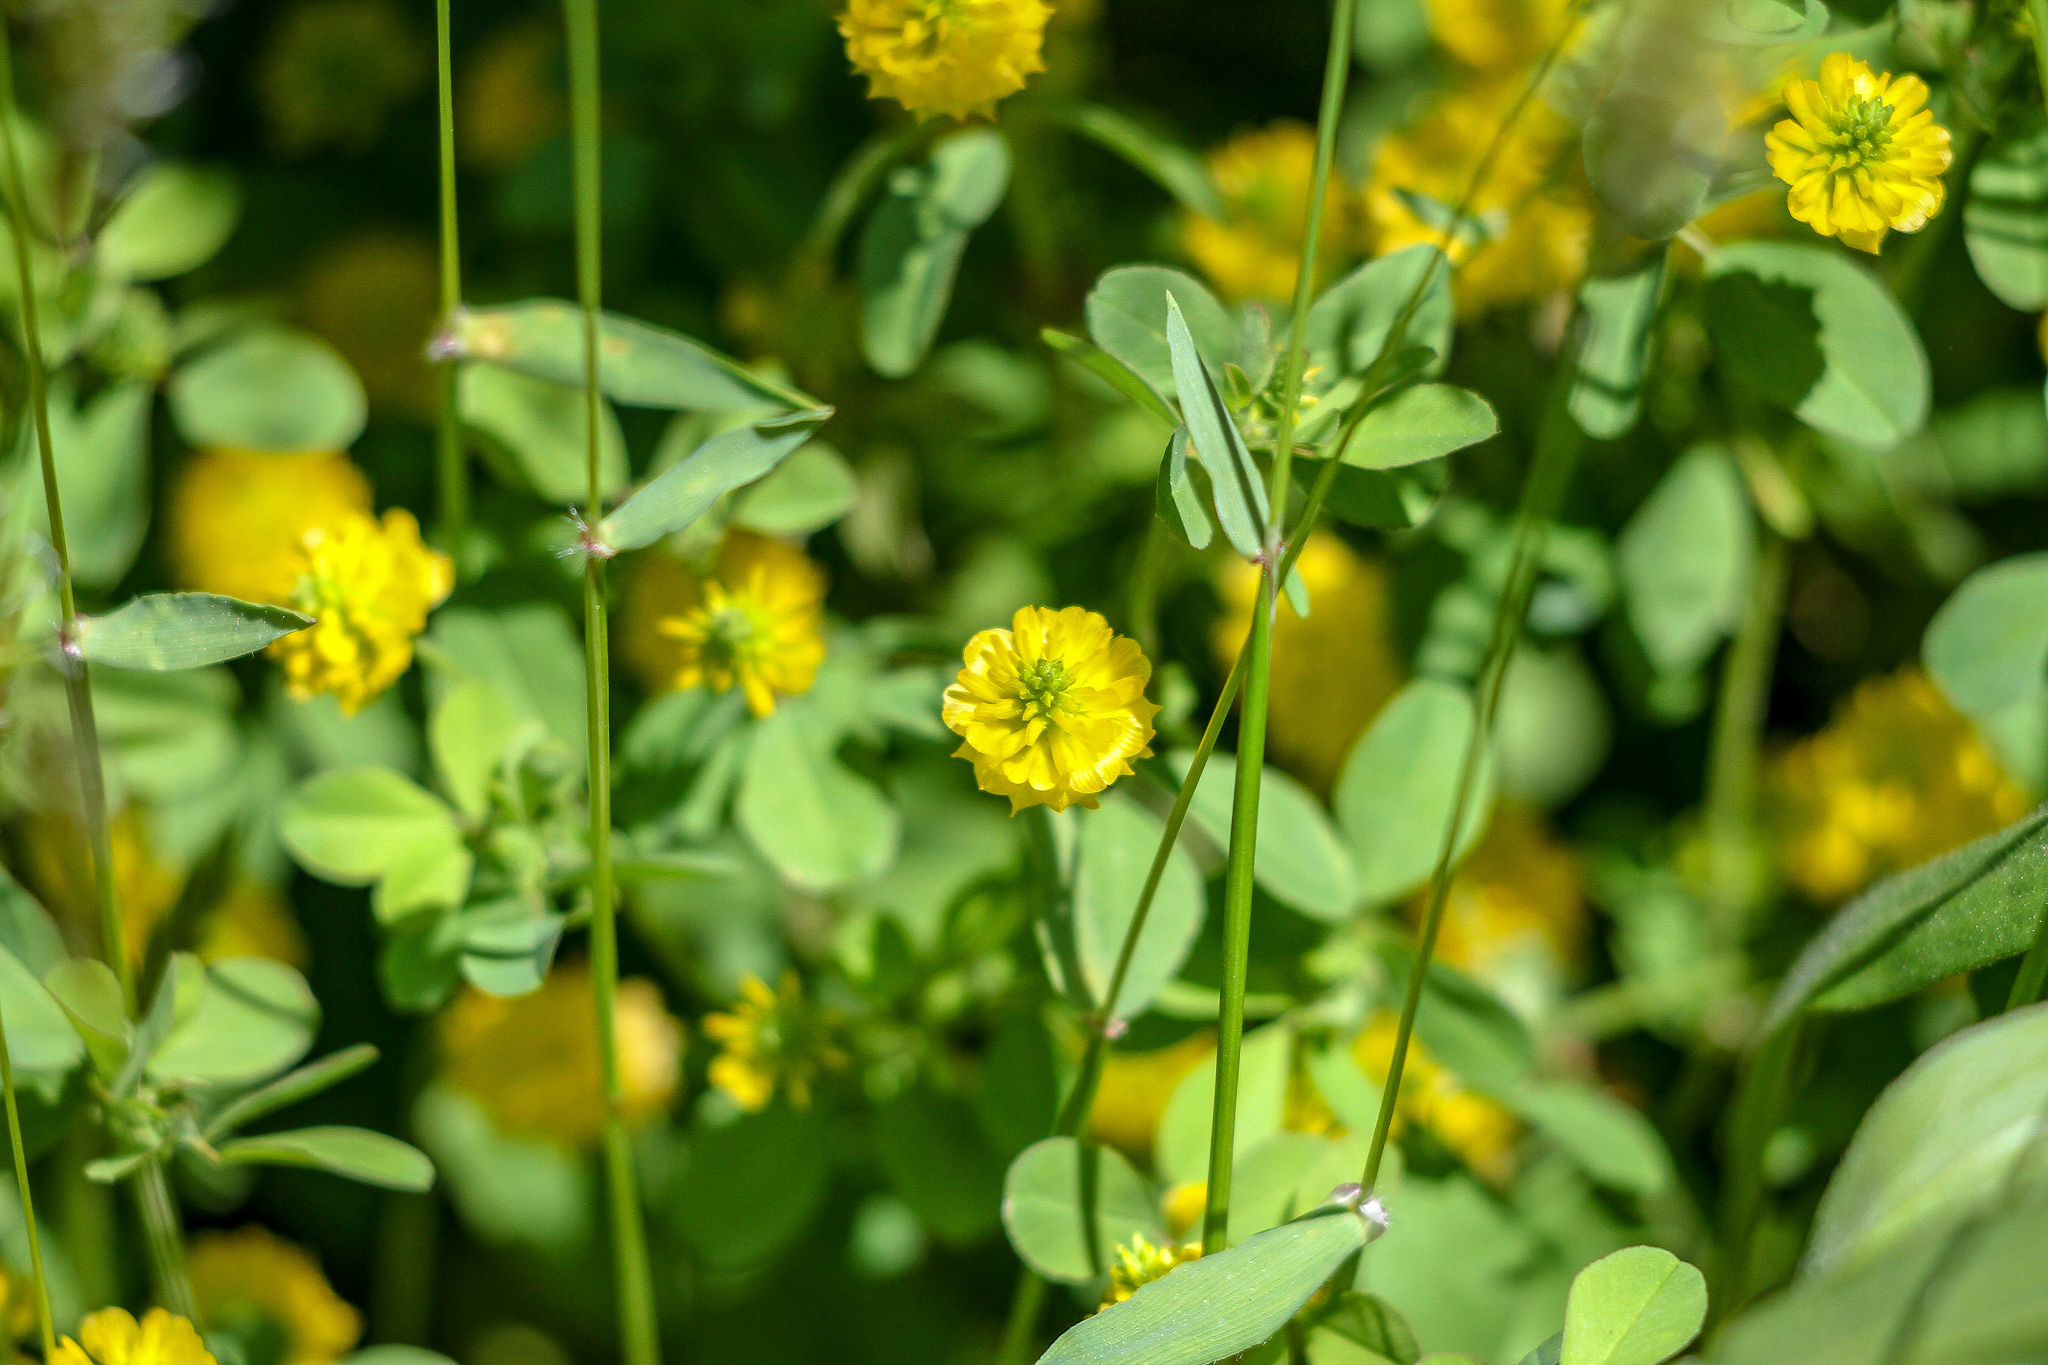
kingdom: Plantae
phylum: Tracheophyta
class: Magnoliopsida
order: Fabales
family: Fabaceae
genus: Trifolium
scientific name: Trifolium campestre
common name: Field clover
